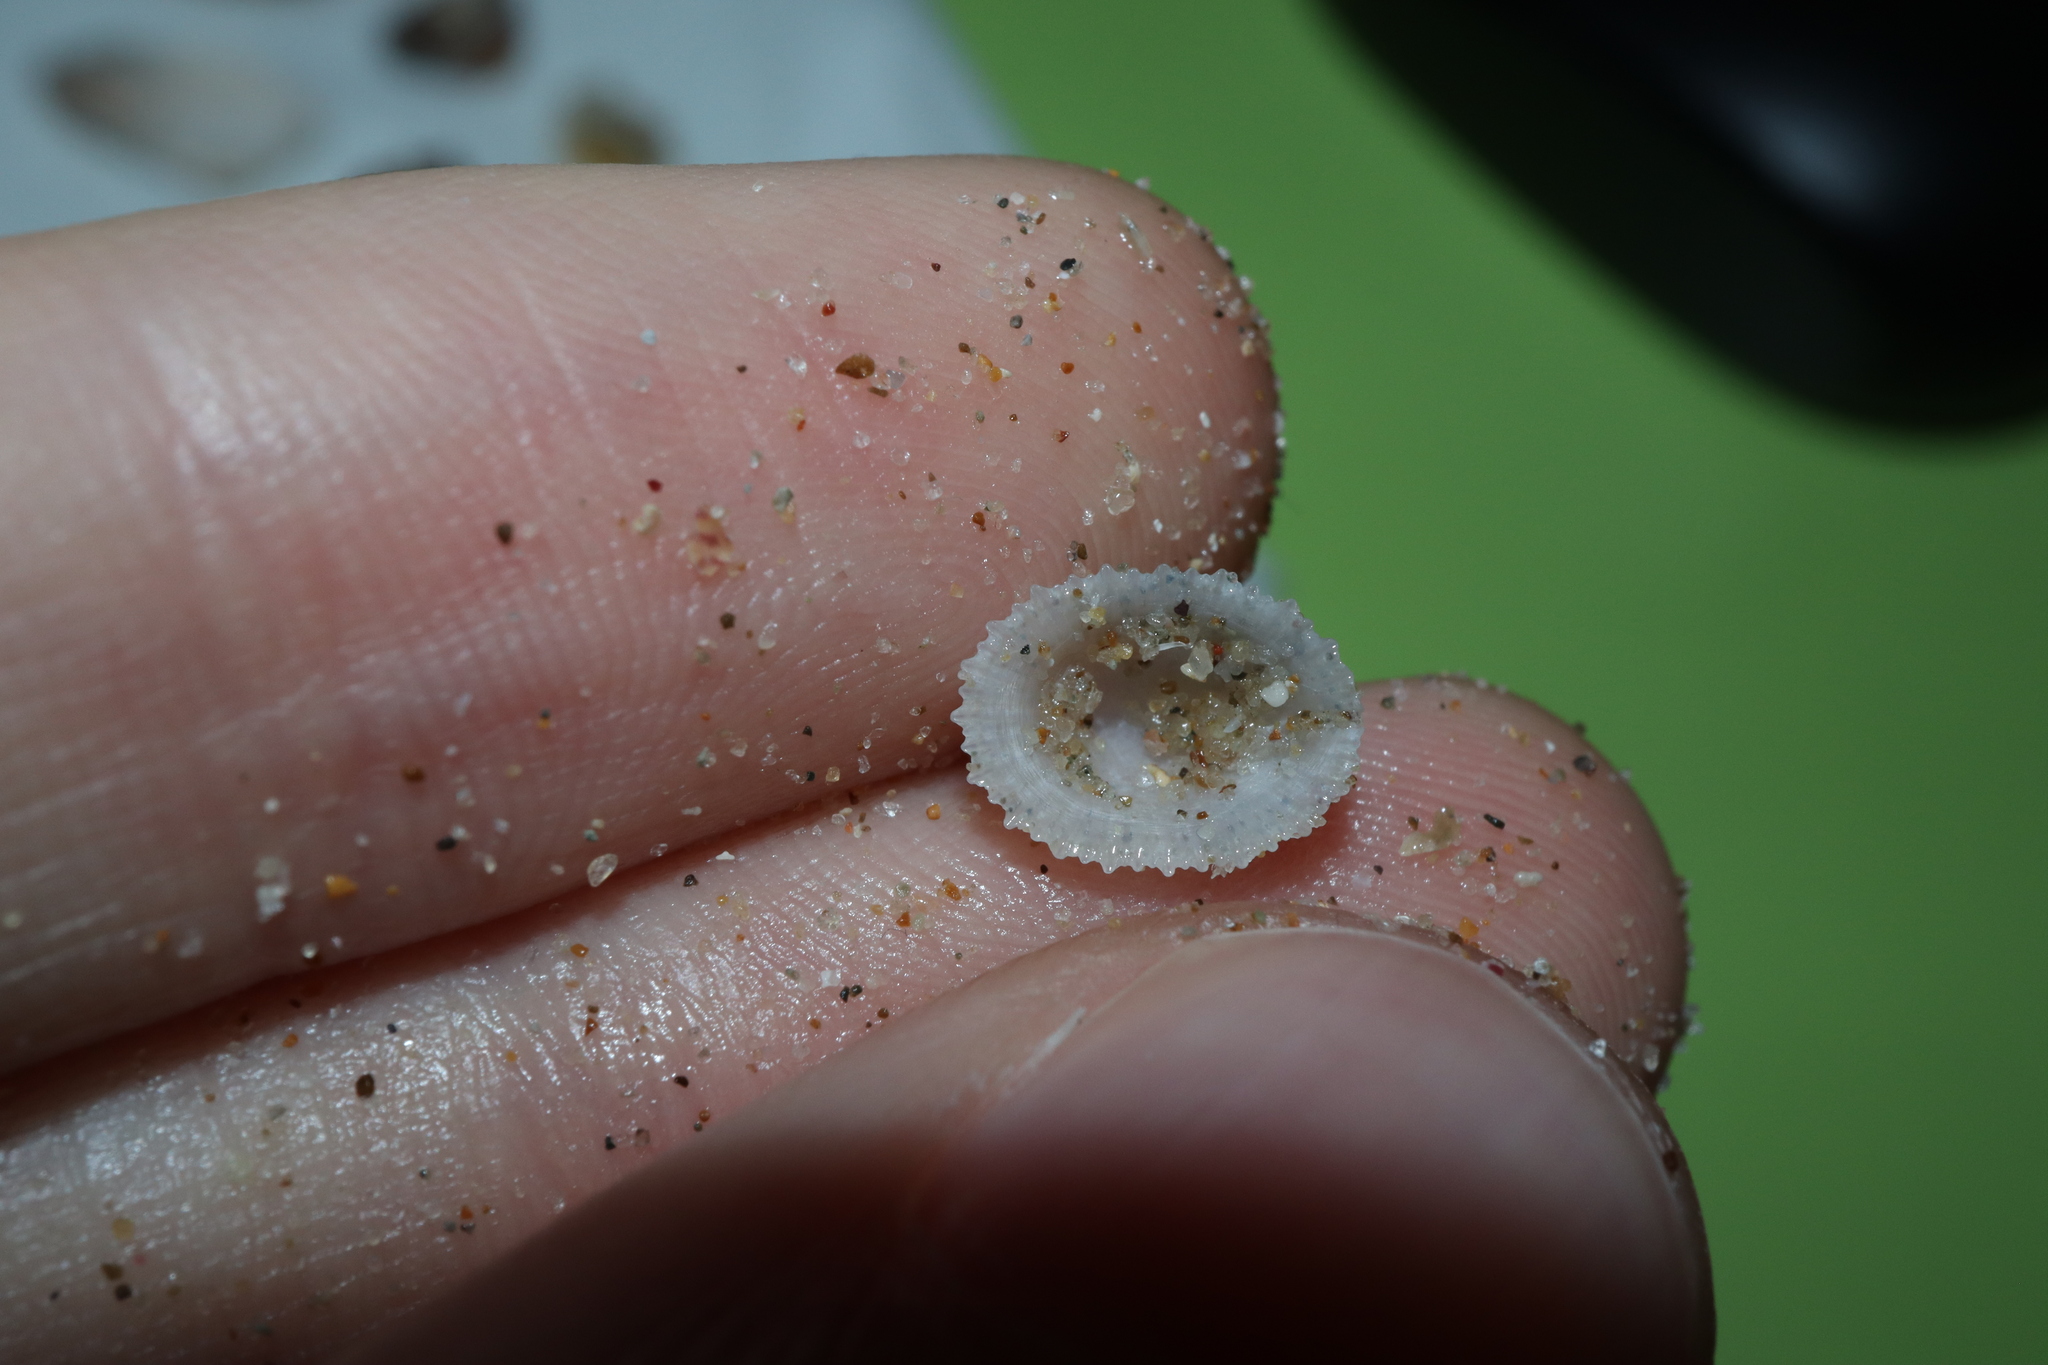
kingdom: Animalia
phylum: Mollusca
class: Gastropoda
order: Lepetellida
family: Fissurellidae
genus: Emarginula
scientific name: Emarginula candida
